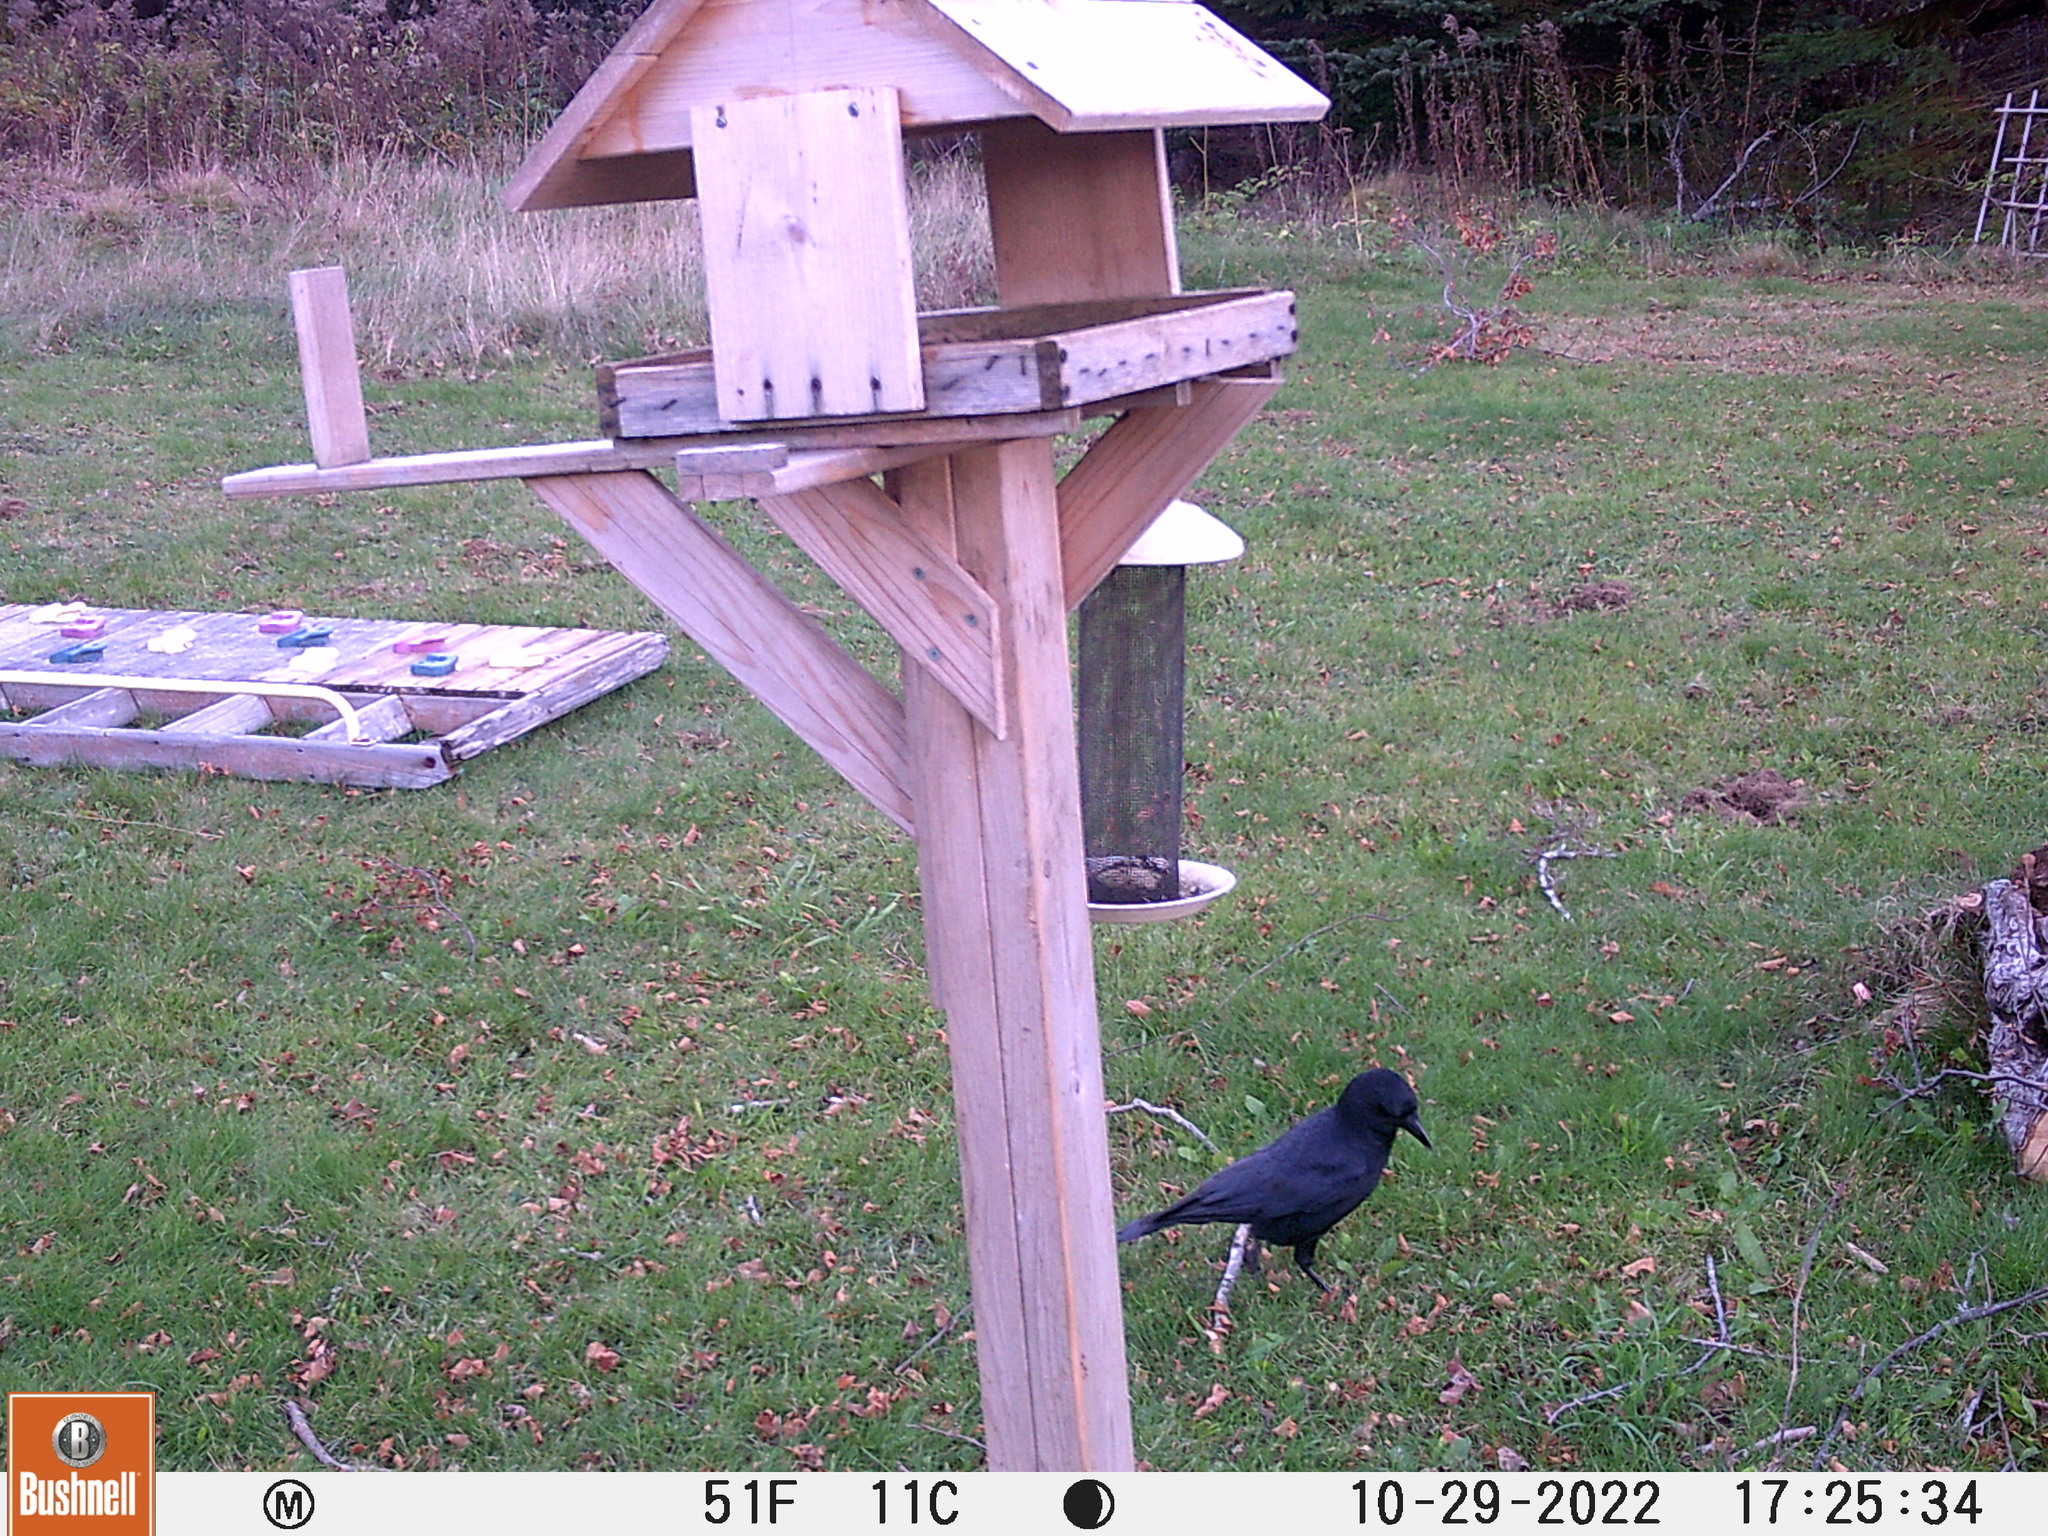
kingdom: Animalia
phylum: Chordata
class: Aves
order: Passeriformes
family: Corvidae
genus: Corvus
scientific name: Corvus brachyrhynchos
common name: American crow
